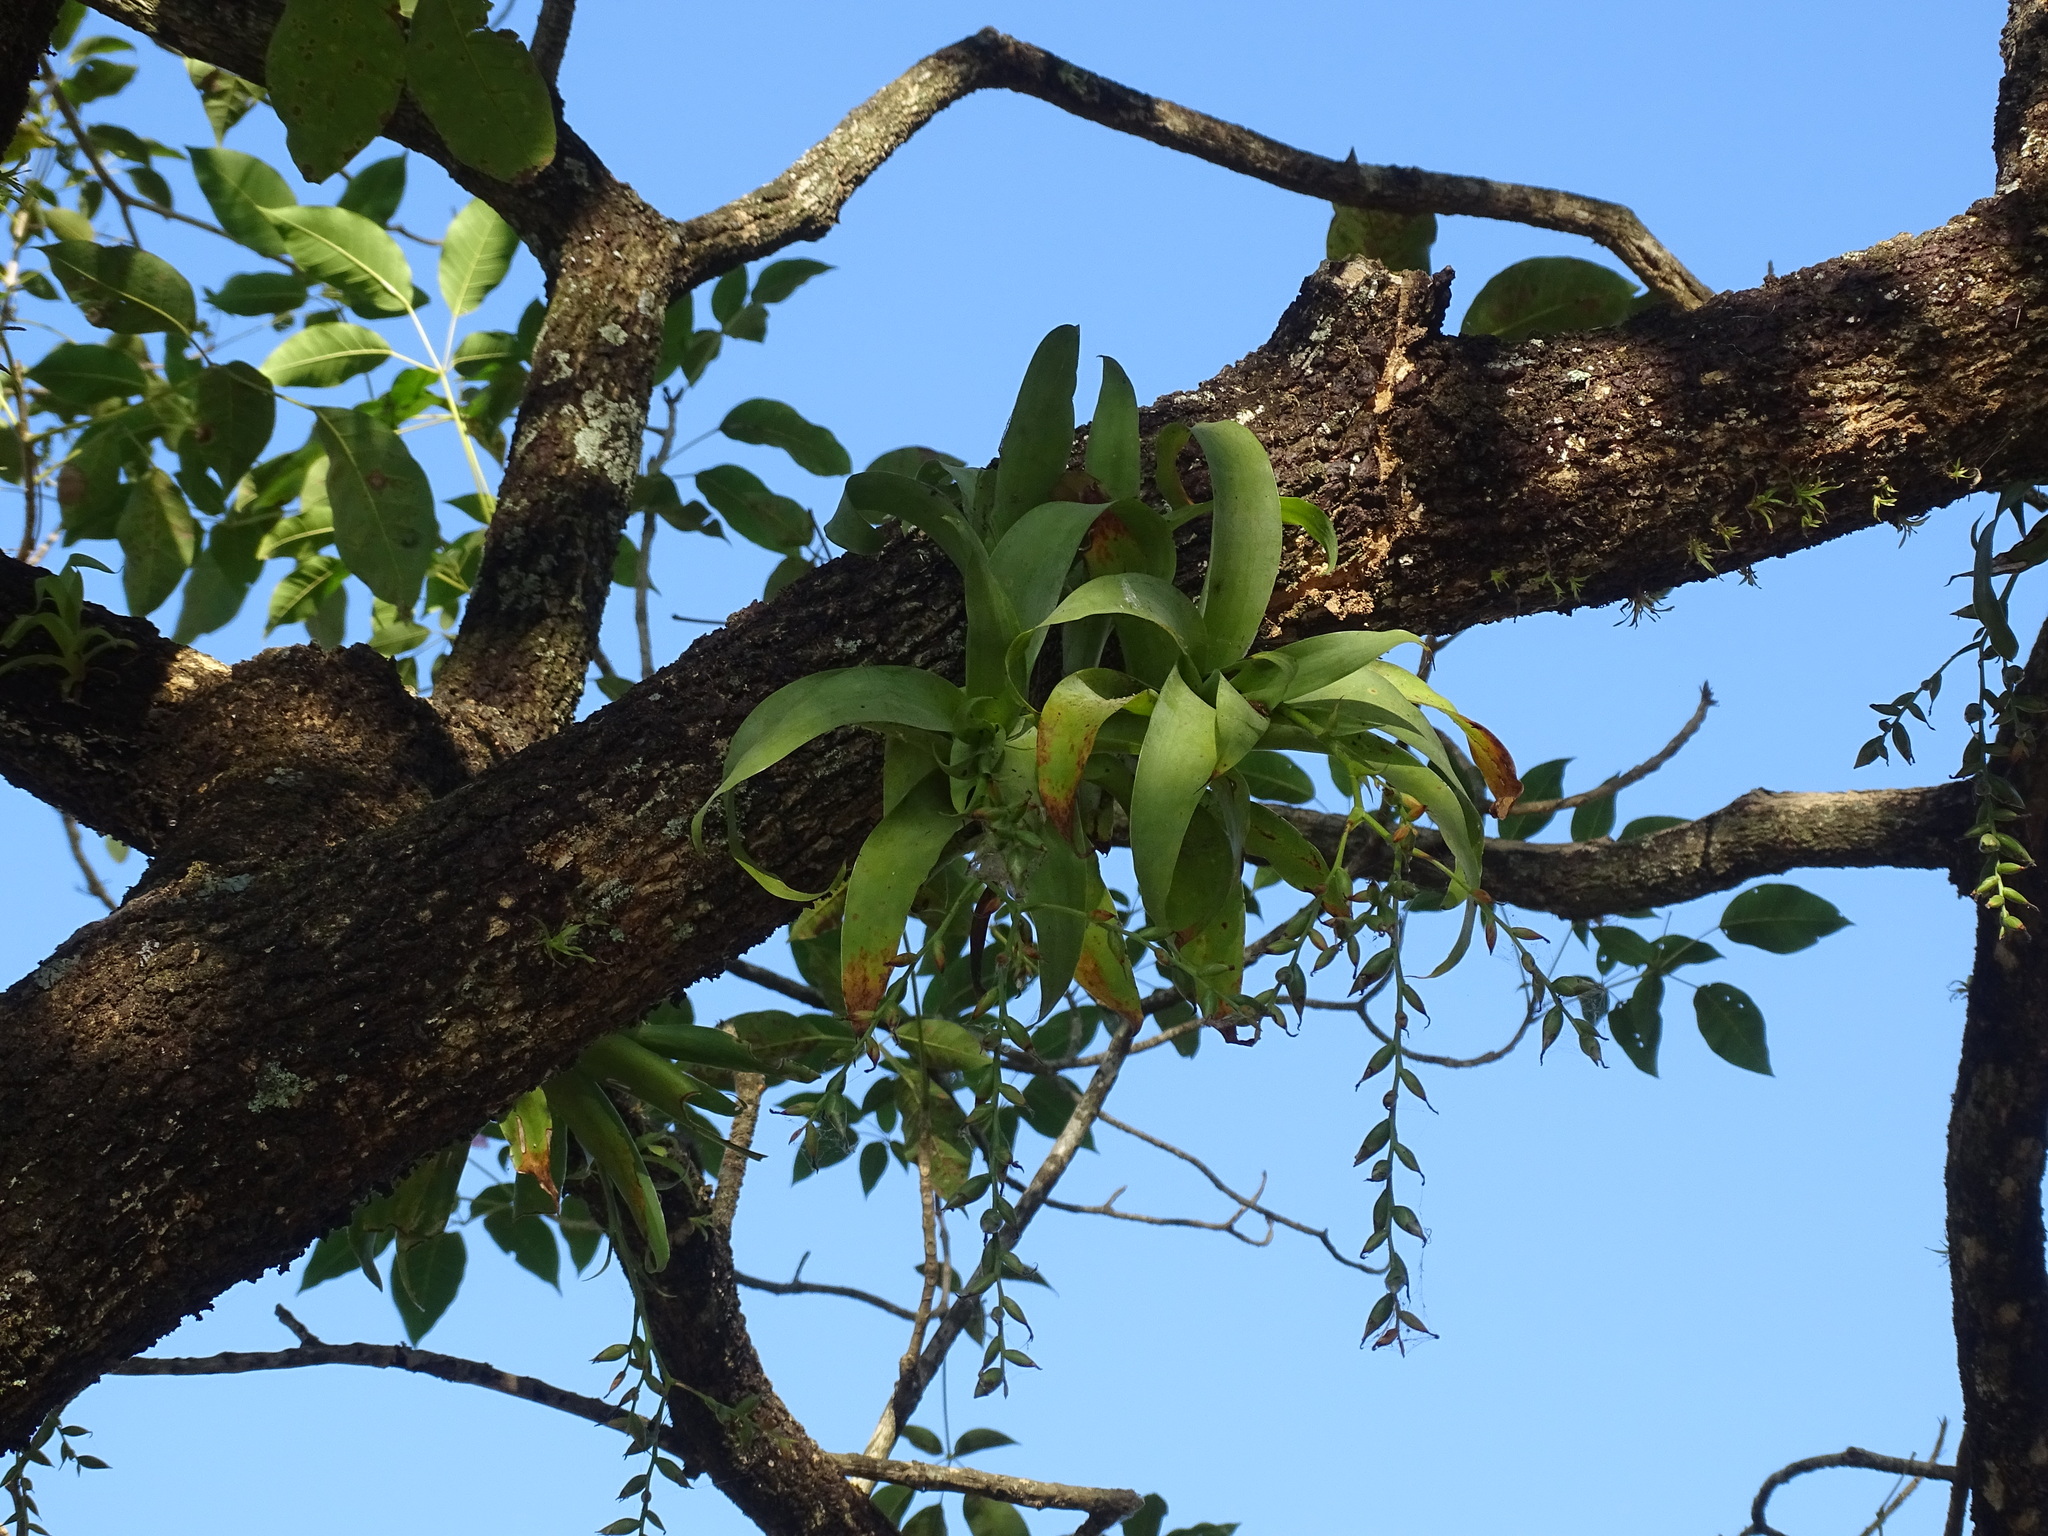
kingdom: Plantae
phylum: Tracheophyta
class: Liliopsida
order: Poales
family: Bromeliaceae
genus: Catopsis
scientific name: Catopsis nutans
